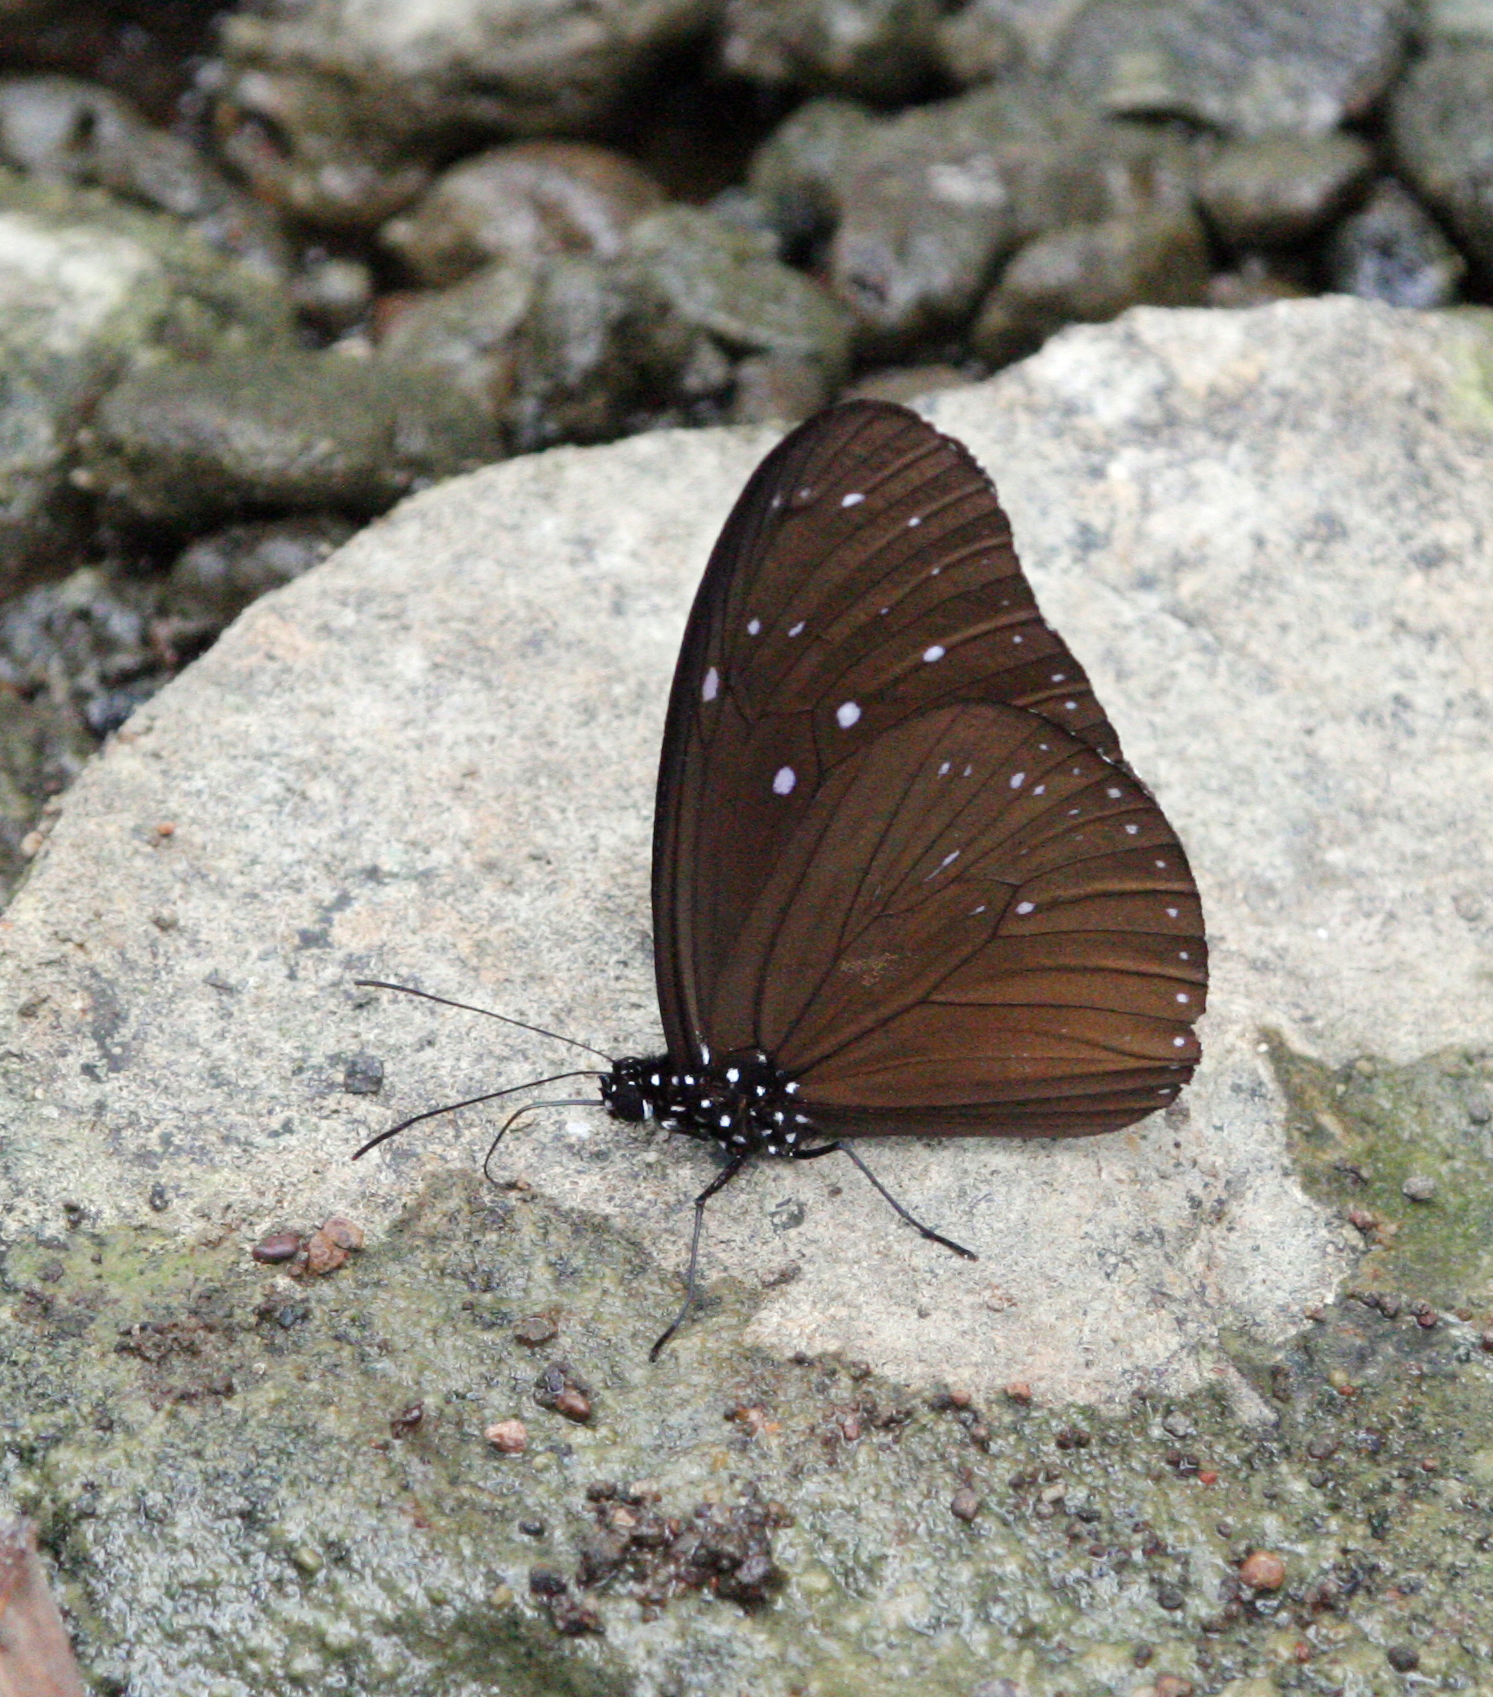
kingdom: Animalia
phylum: Arthropoda
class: Insecta
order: Lepidoptera
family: Nymphalidae
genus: Euploea
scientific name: Euploea mulciber
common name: Striped blue crow butterfly
